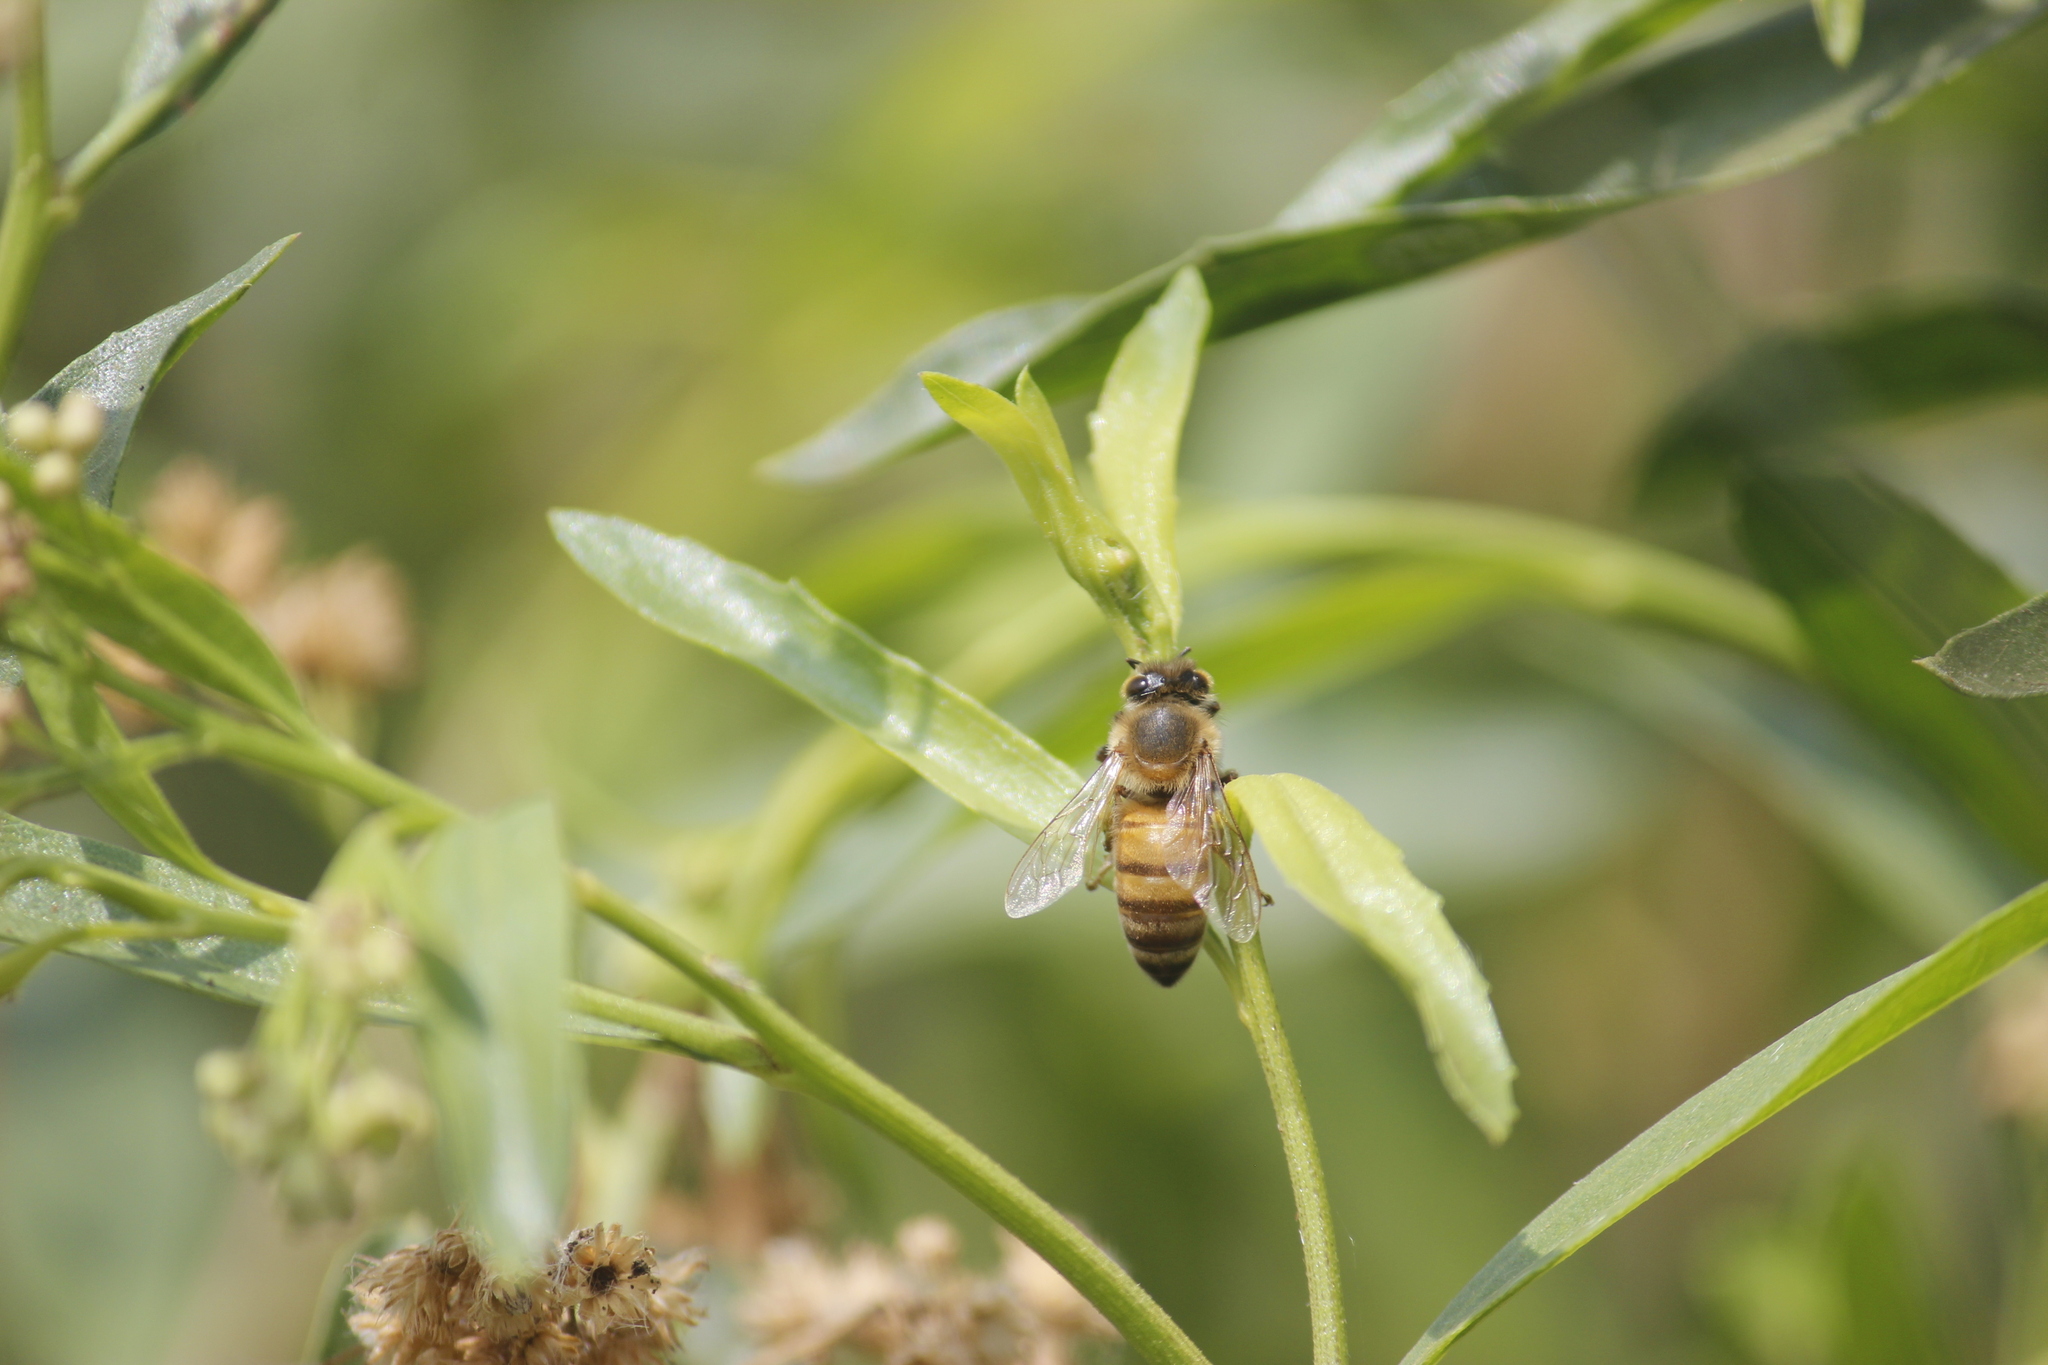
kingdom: Animalia
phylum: Arthropoda
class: Insecta
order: Hymenoptera
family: Apidae
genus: Apis
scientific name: Apis mellifera
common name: Honey bee
